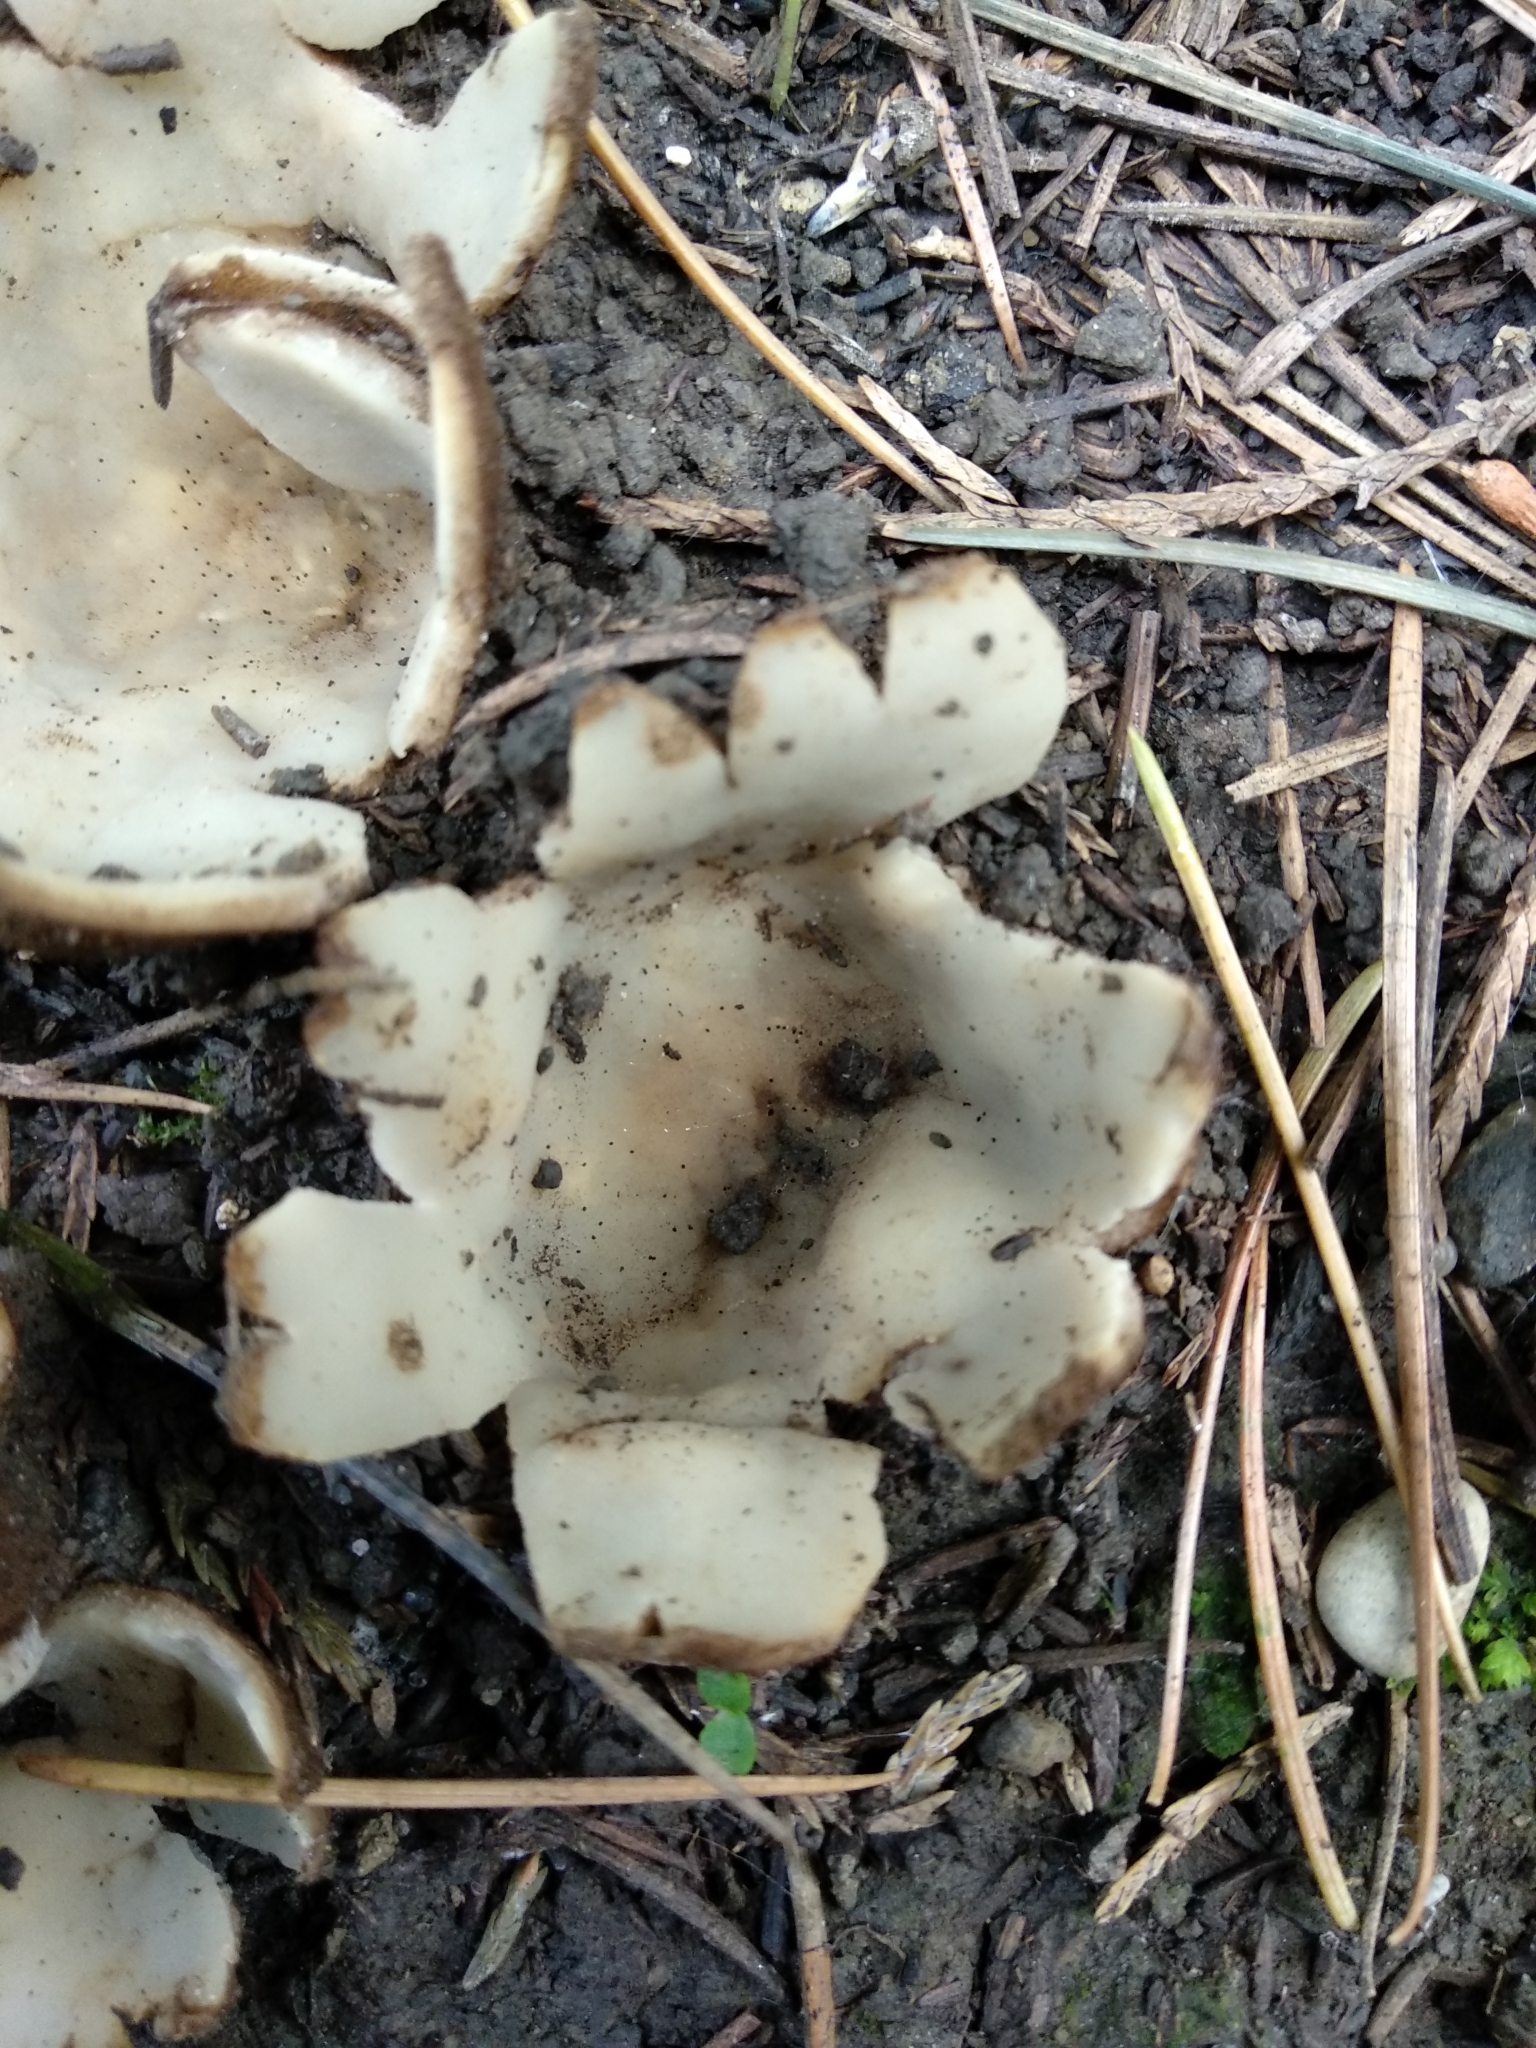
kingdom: Fungi
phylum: Ascomycota
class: Pezizomycetes
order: Pezizales
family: Pyronemataceae
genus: Geopora
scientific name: Geopora sumneriana
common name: Cedar cup
